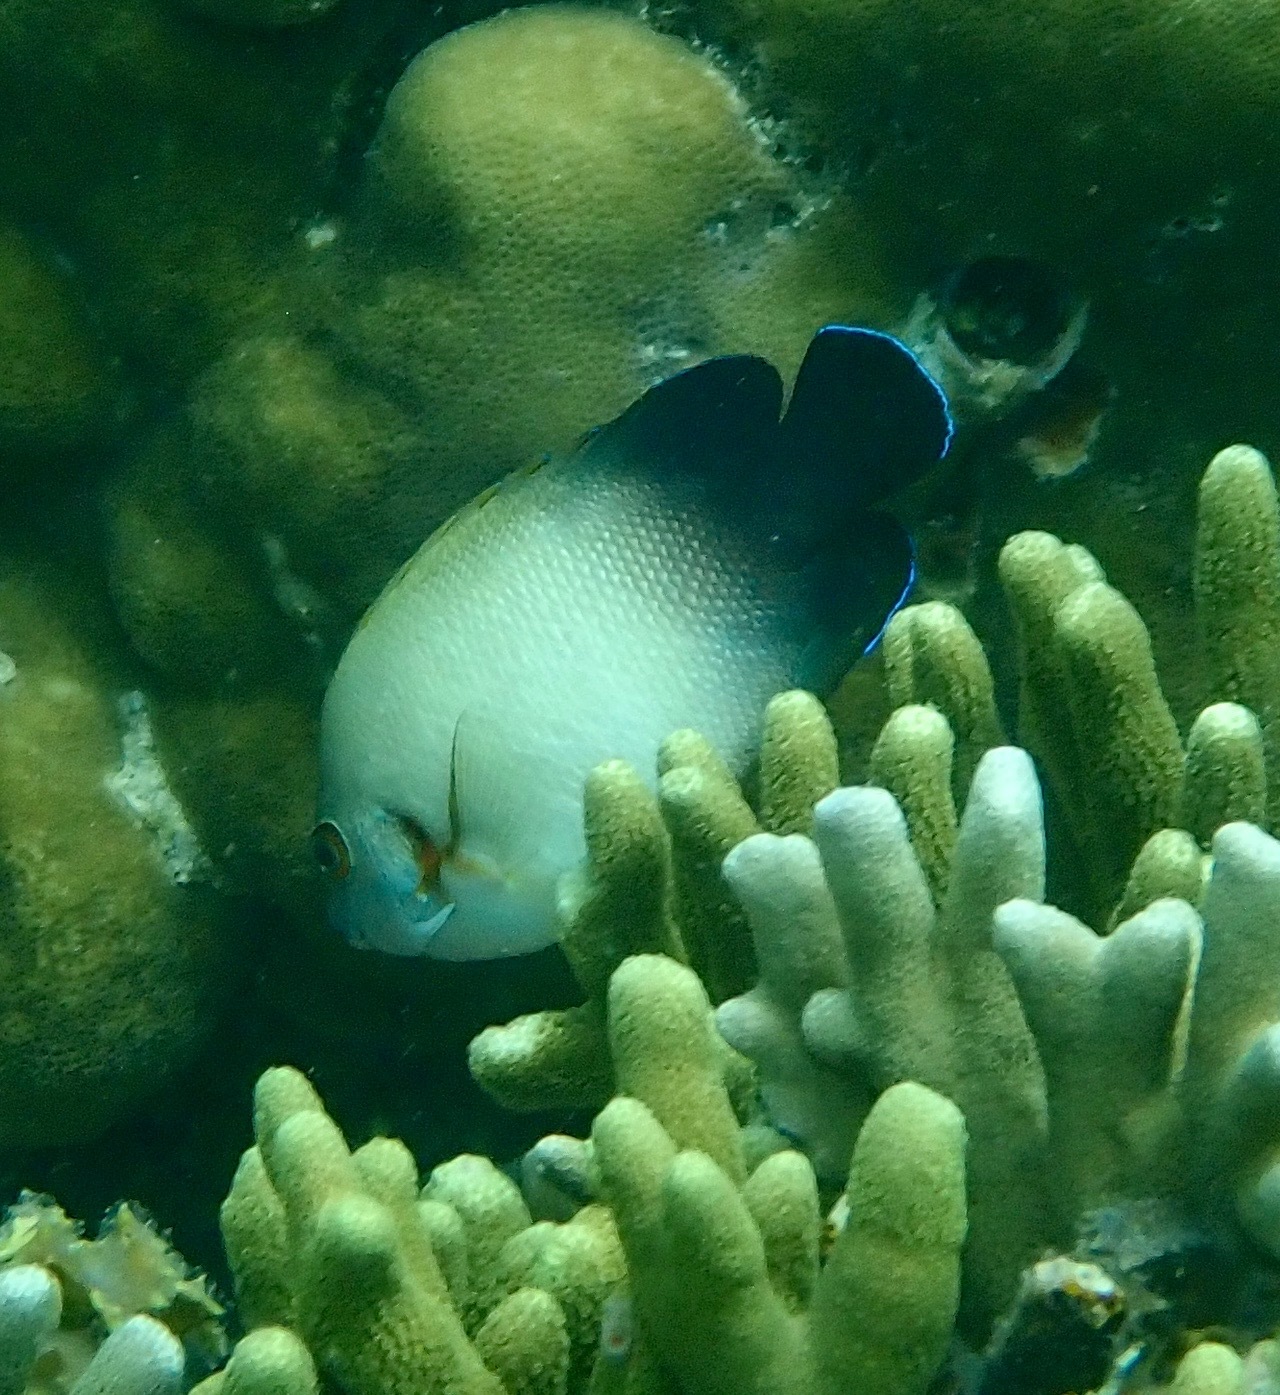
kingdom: Animalia
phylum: Chordata
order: Perciformes
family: Pomacanthidae
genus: Centropyge
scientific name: Centropyge vrolikii
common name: Pearlscale angelfish
